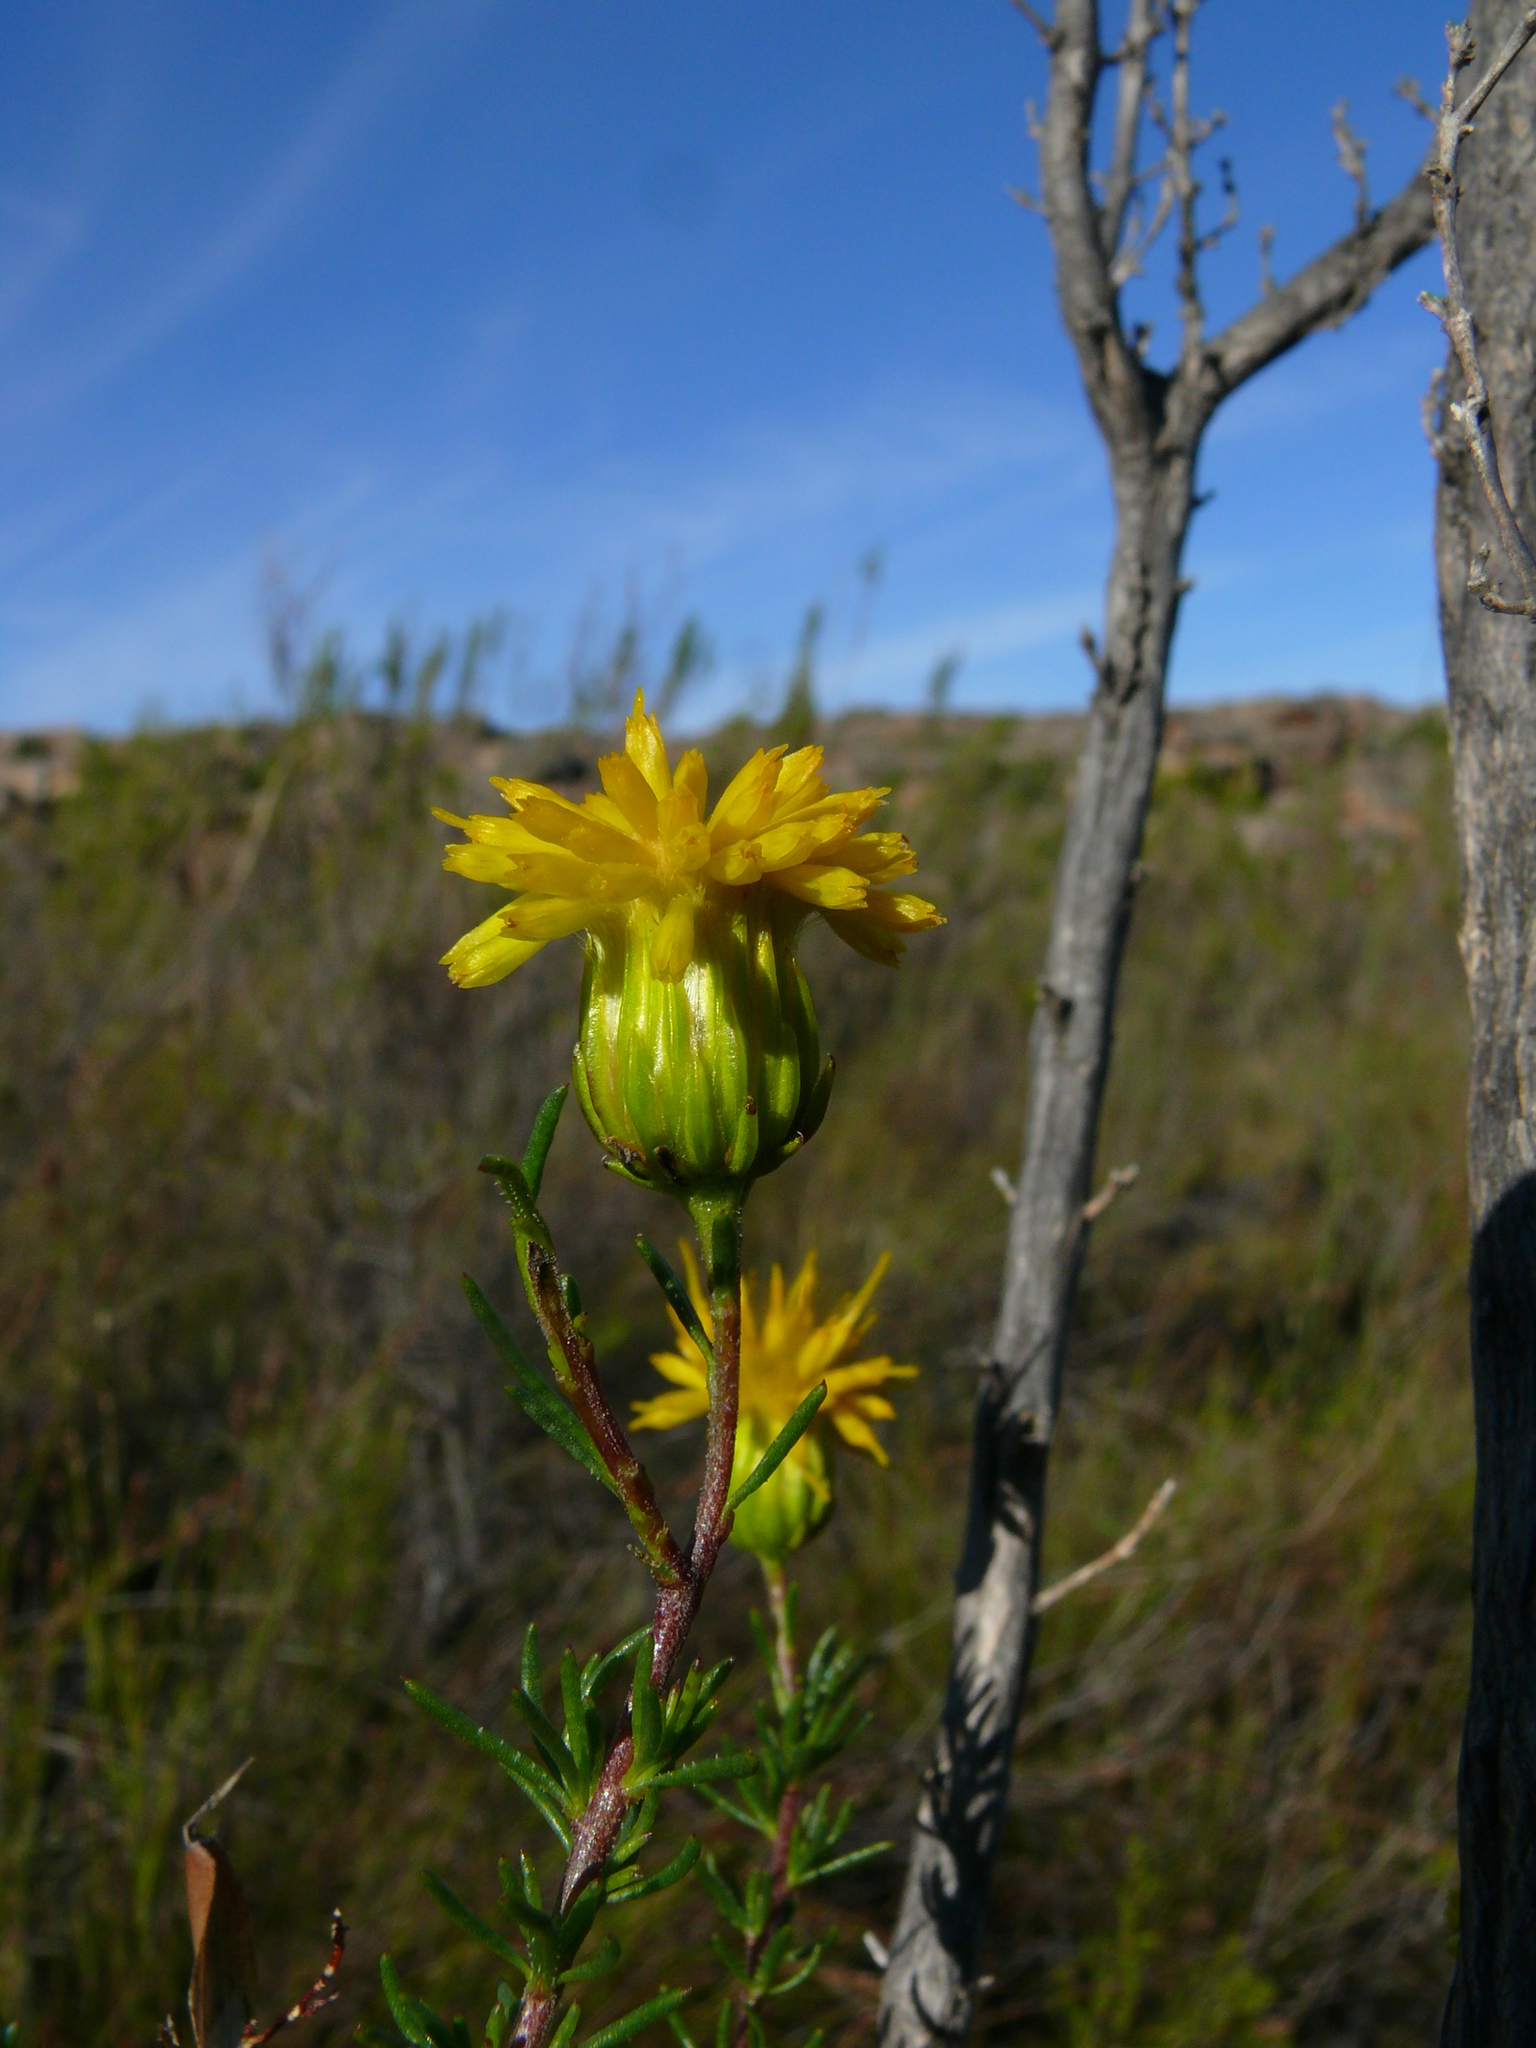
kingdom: Plantae
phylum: Tracheophyta
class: Magnoliopsida
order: Asterales
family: Asteraceae
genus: Pteronia
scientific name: Pteronia camphorata
